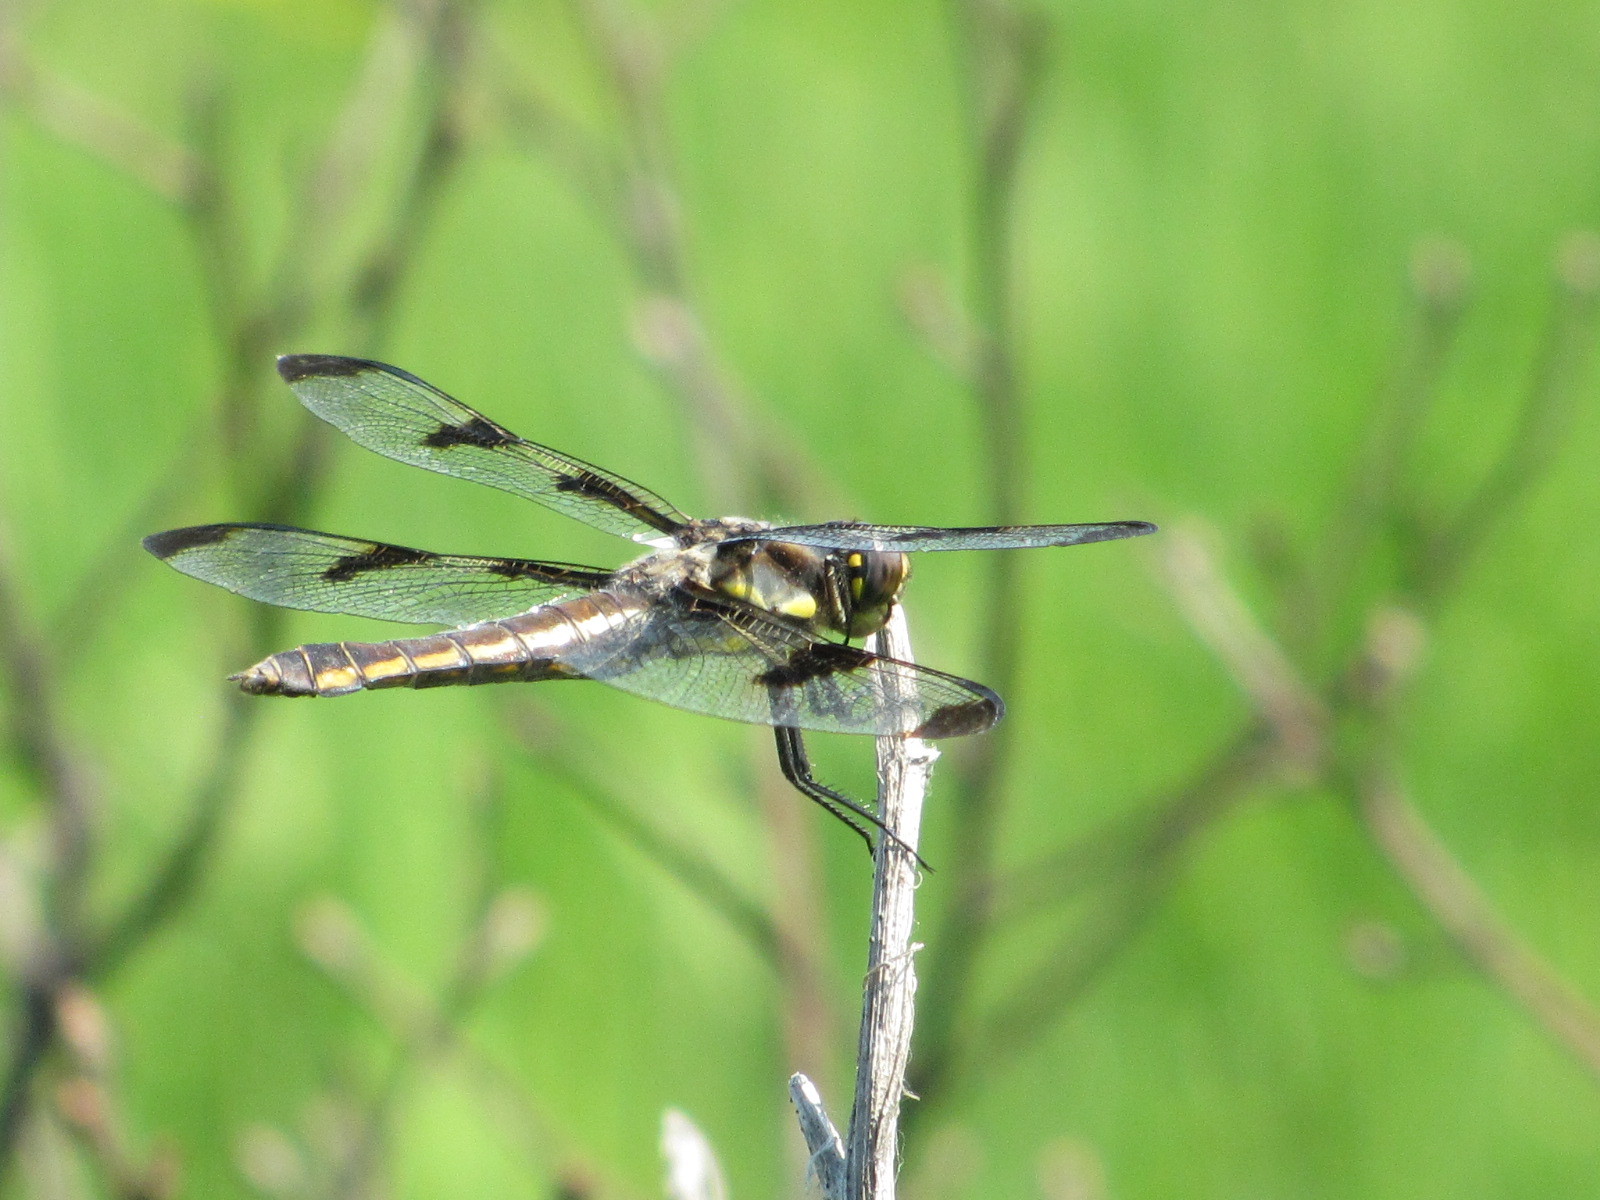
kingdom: Animalia
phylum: Arthropoda
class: Insecta
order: Odonata
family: Libellulidae
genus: Libellula
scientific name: Libellula pulchella
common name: Twelve-spotted skimmer
